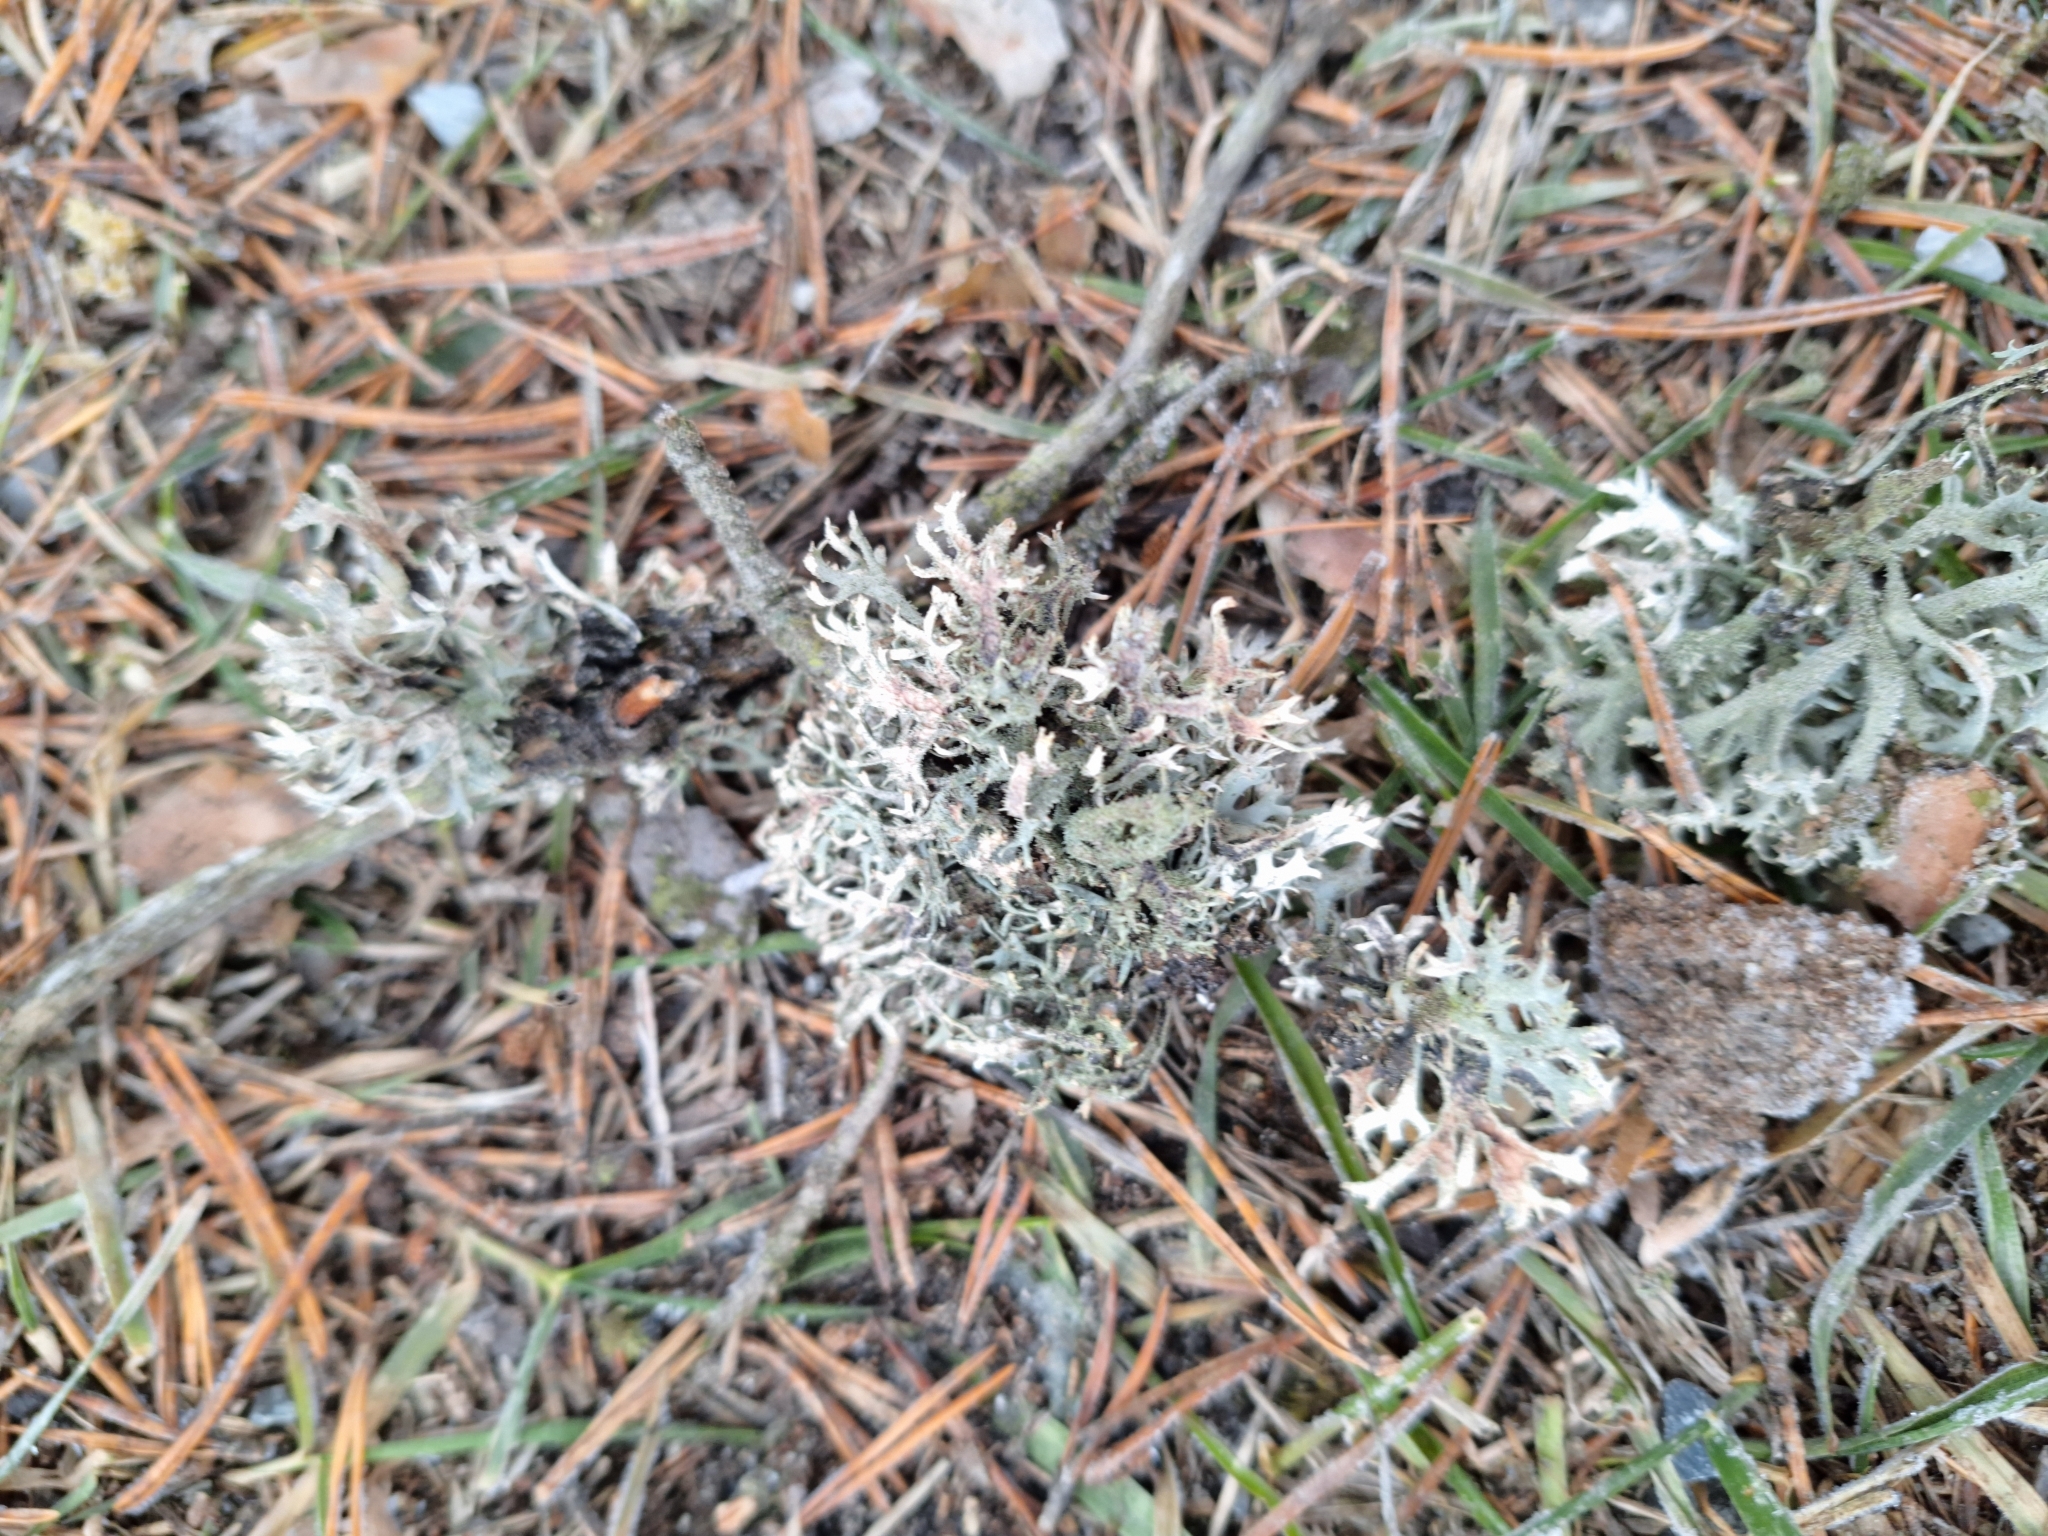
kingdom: Fungi
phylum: Ascomycota
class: Lecanoromycetes
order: Lecanorales
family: Parmeliaceae
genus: Pseudevernia
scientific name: Pseudevernia furfuracea
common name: Tree moss
